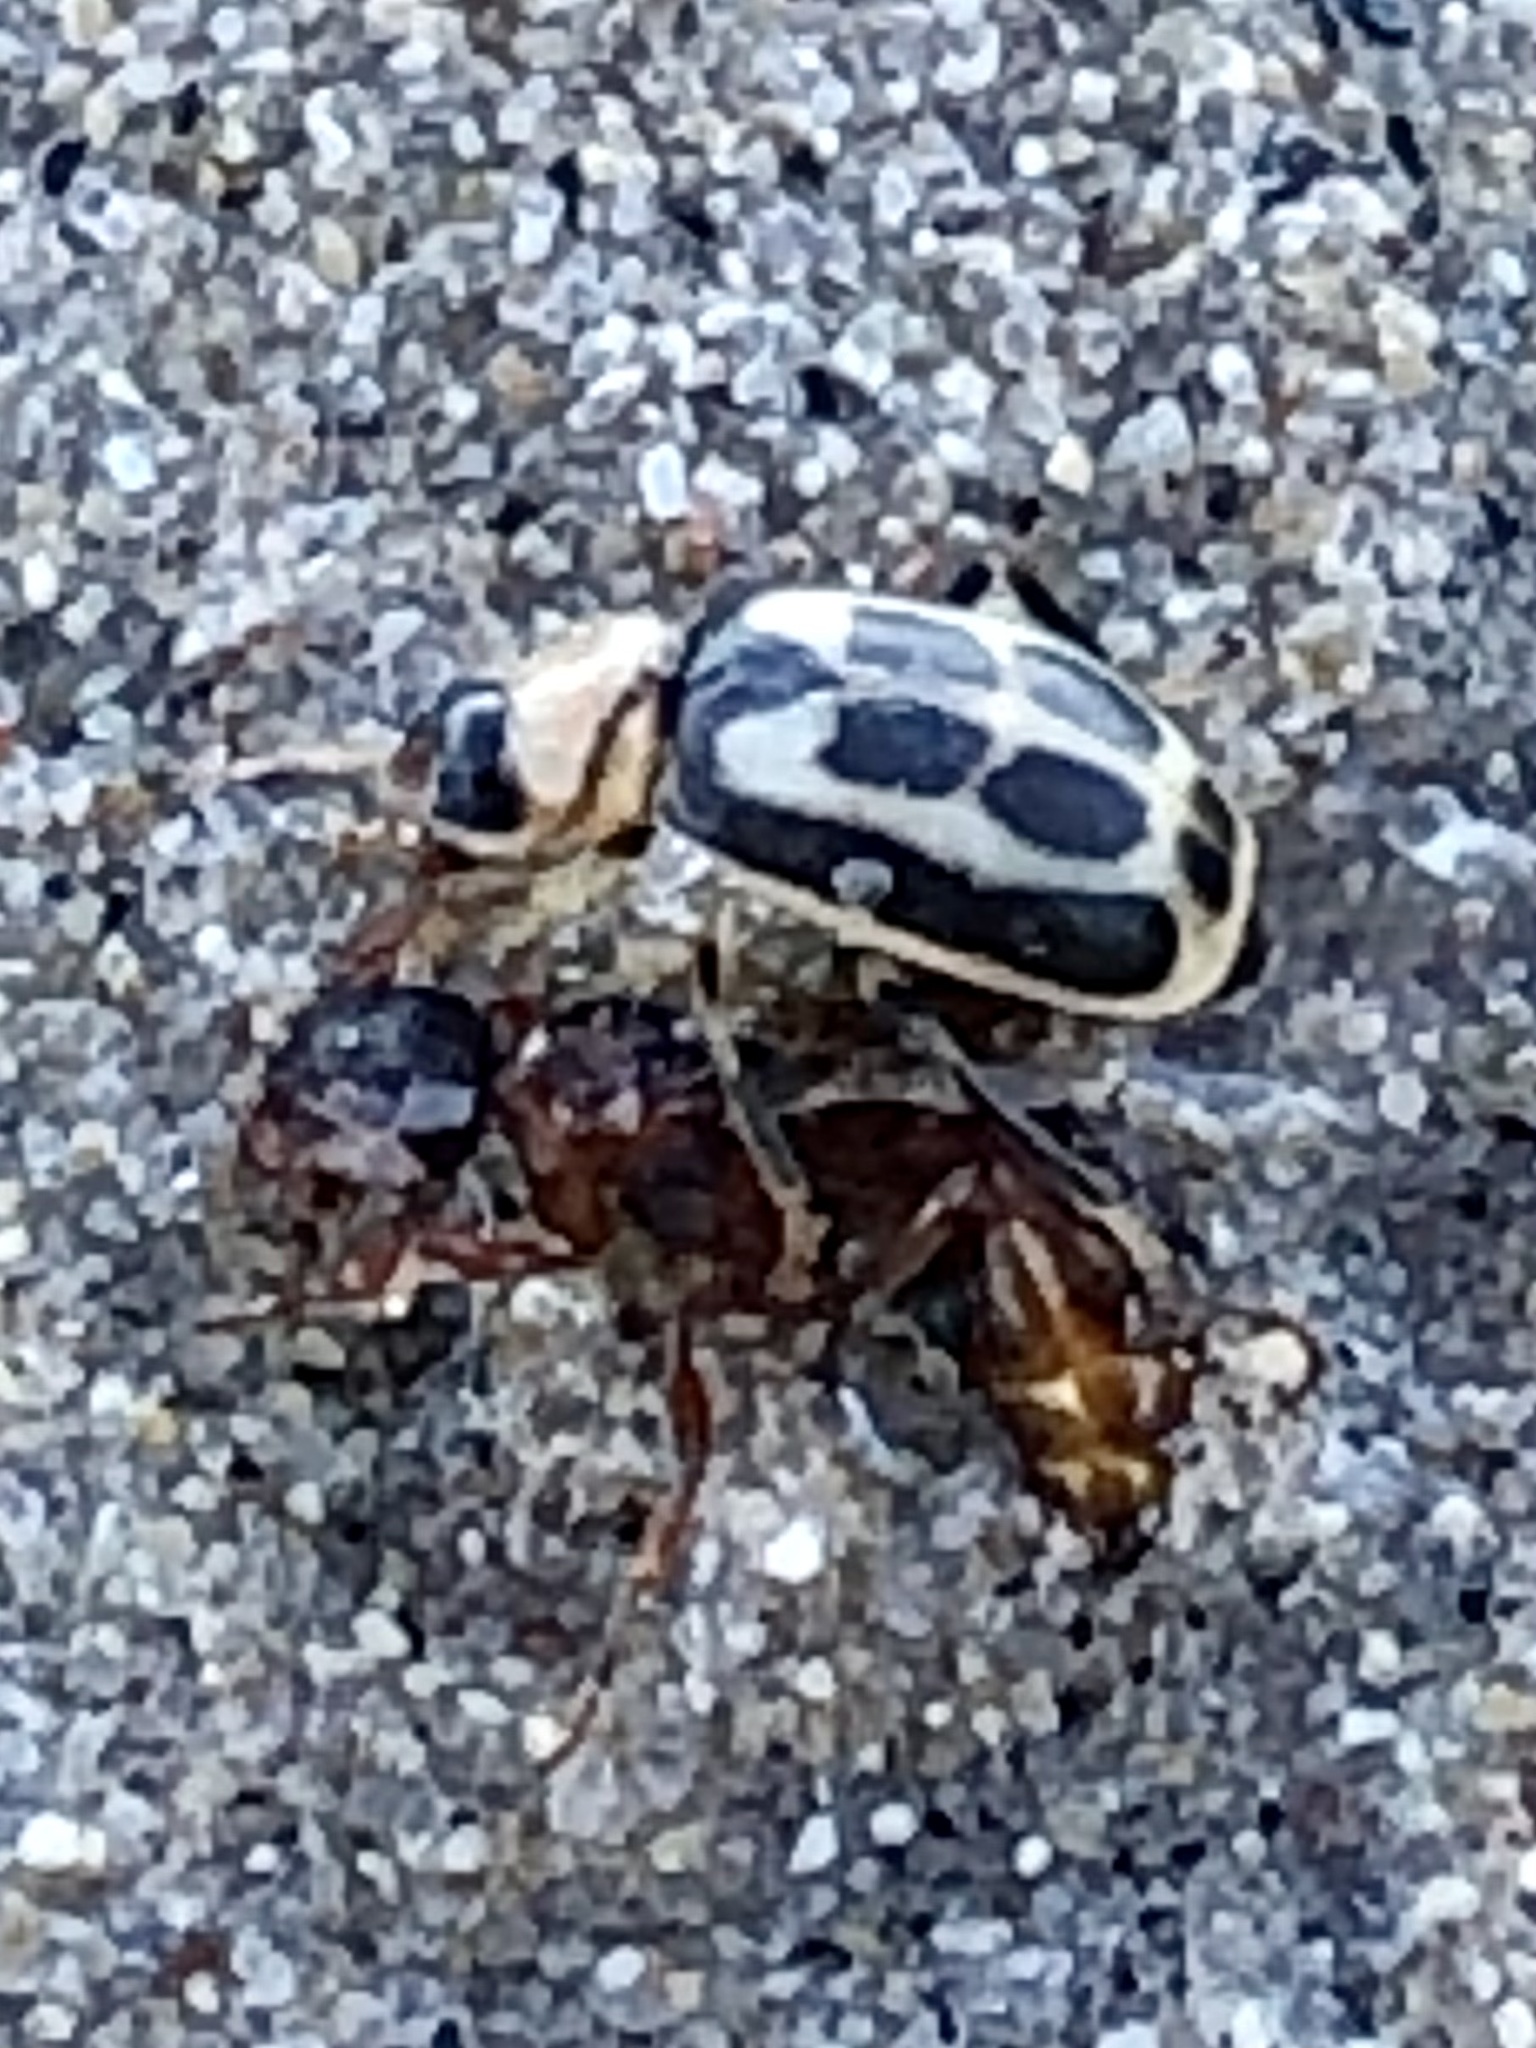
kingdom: Animalia
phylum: Arthropoda
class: Insecta
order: Coleoptera
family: Chrysomelidae
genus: Cerotoma
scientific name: Cerotoma trifurcata
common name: Bean leaf beetle
